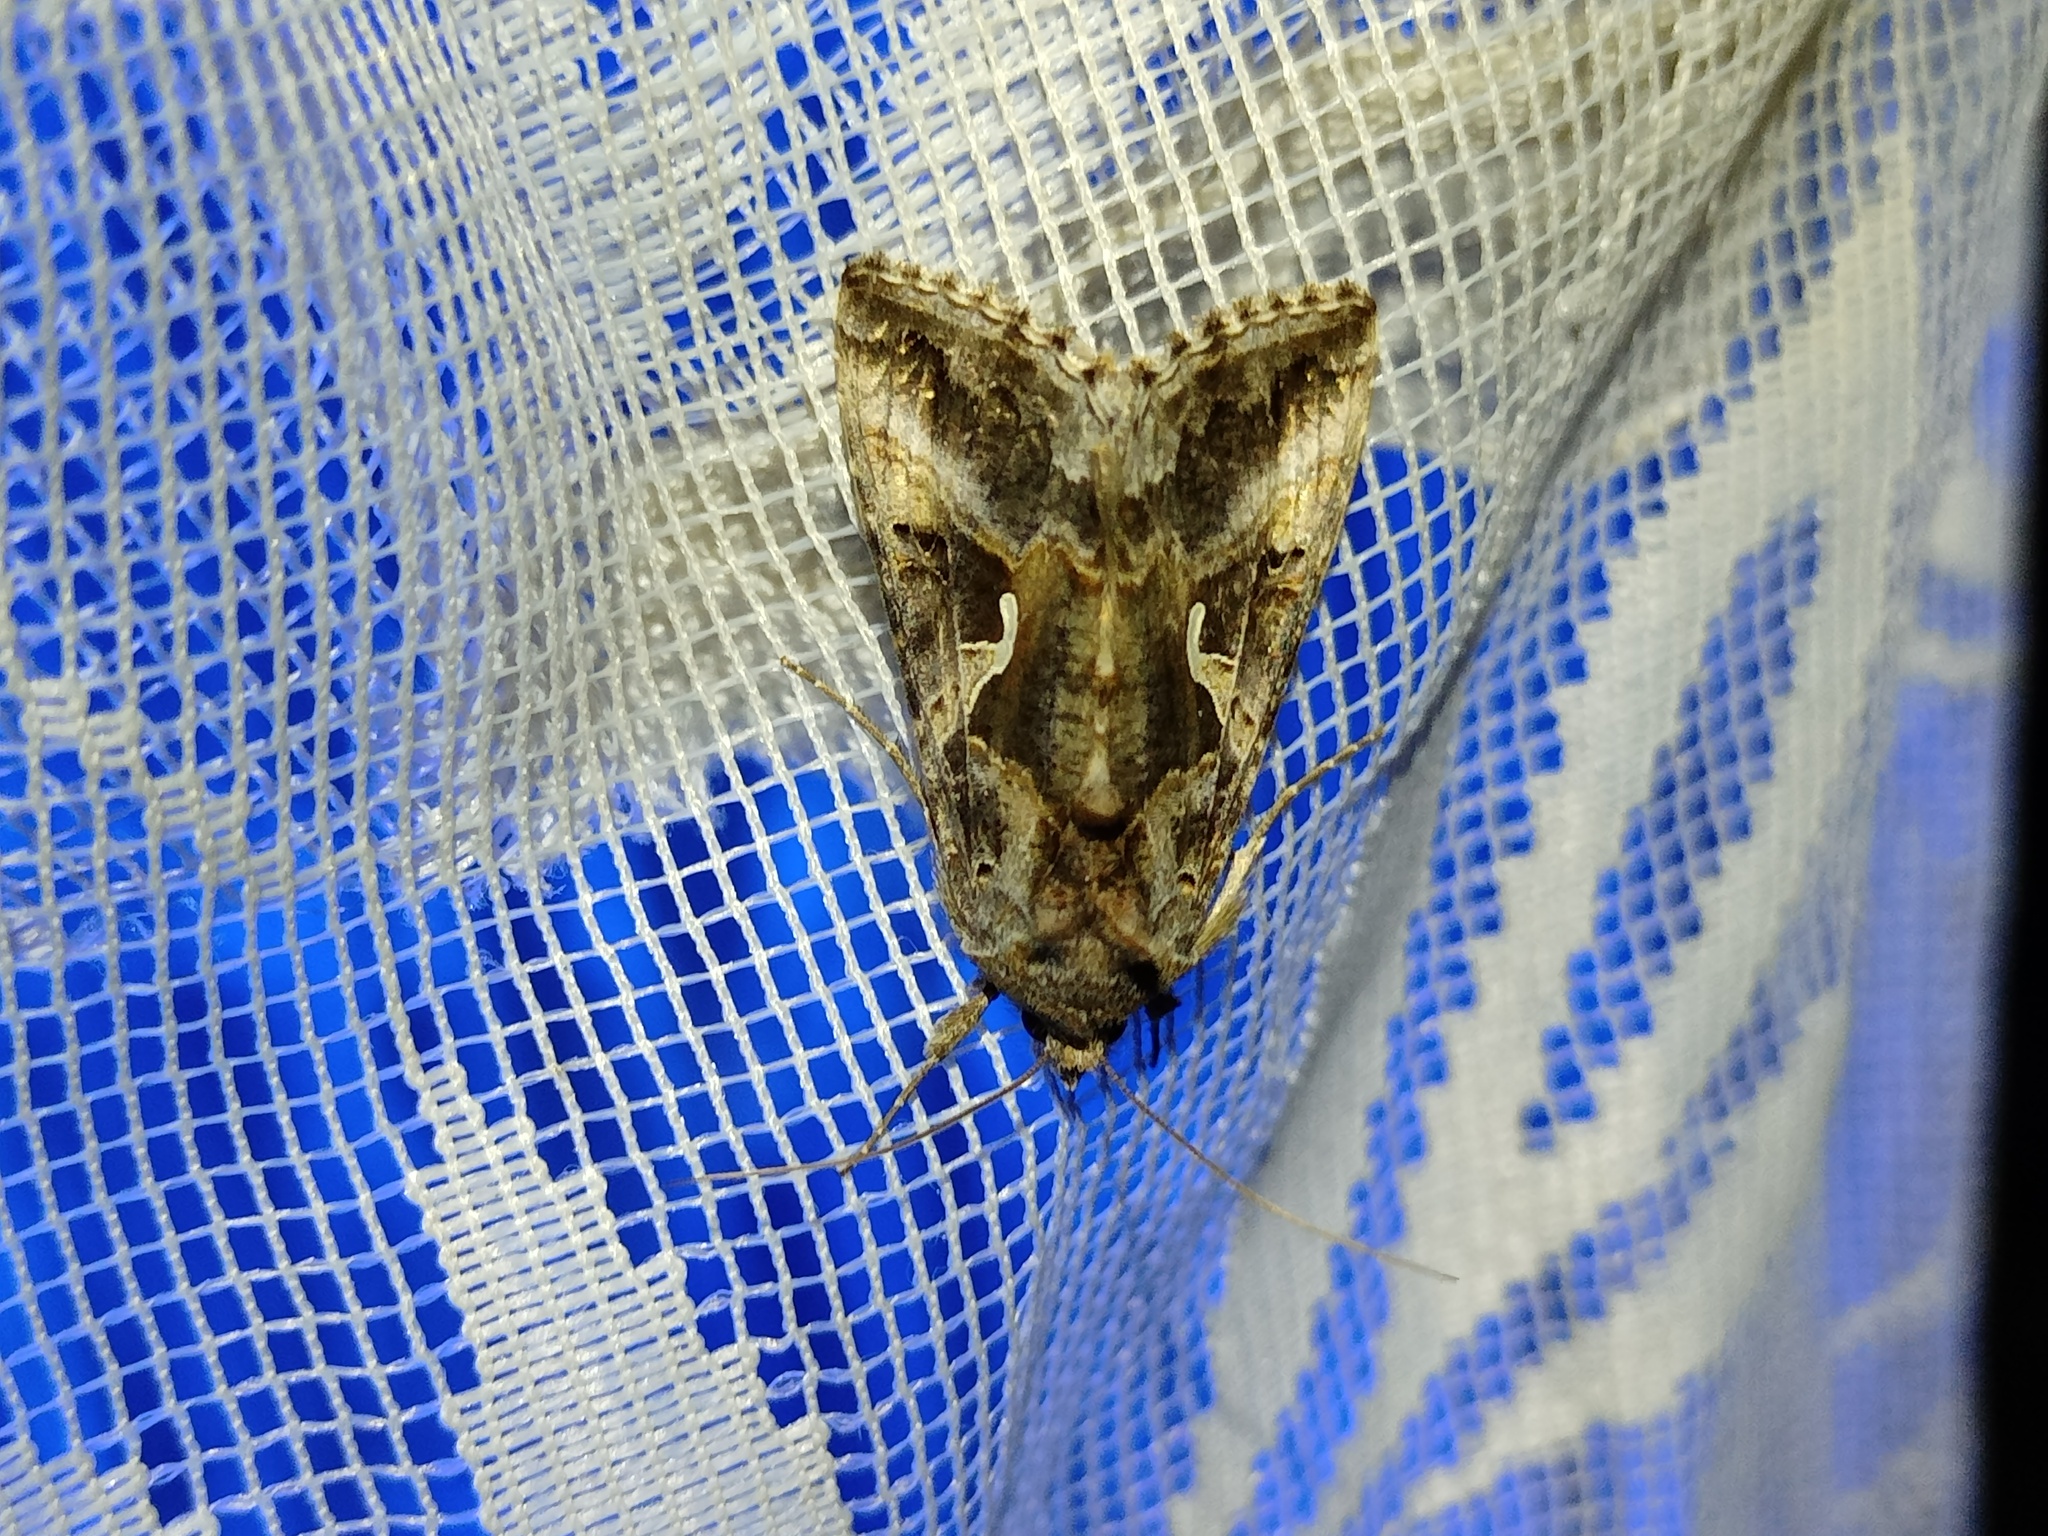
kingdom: Animalia
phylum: Arthropoda
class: Insecta
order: Lepidoptera
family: Noctuidae
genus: Autographa
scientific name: Autographa gamma
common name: Silver y
